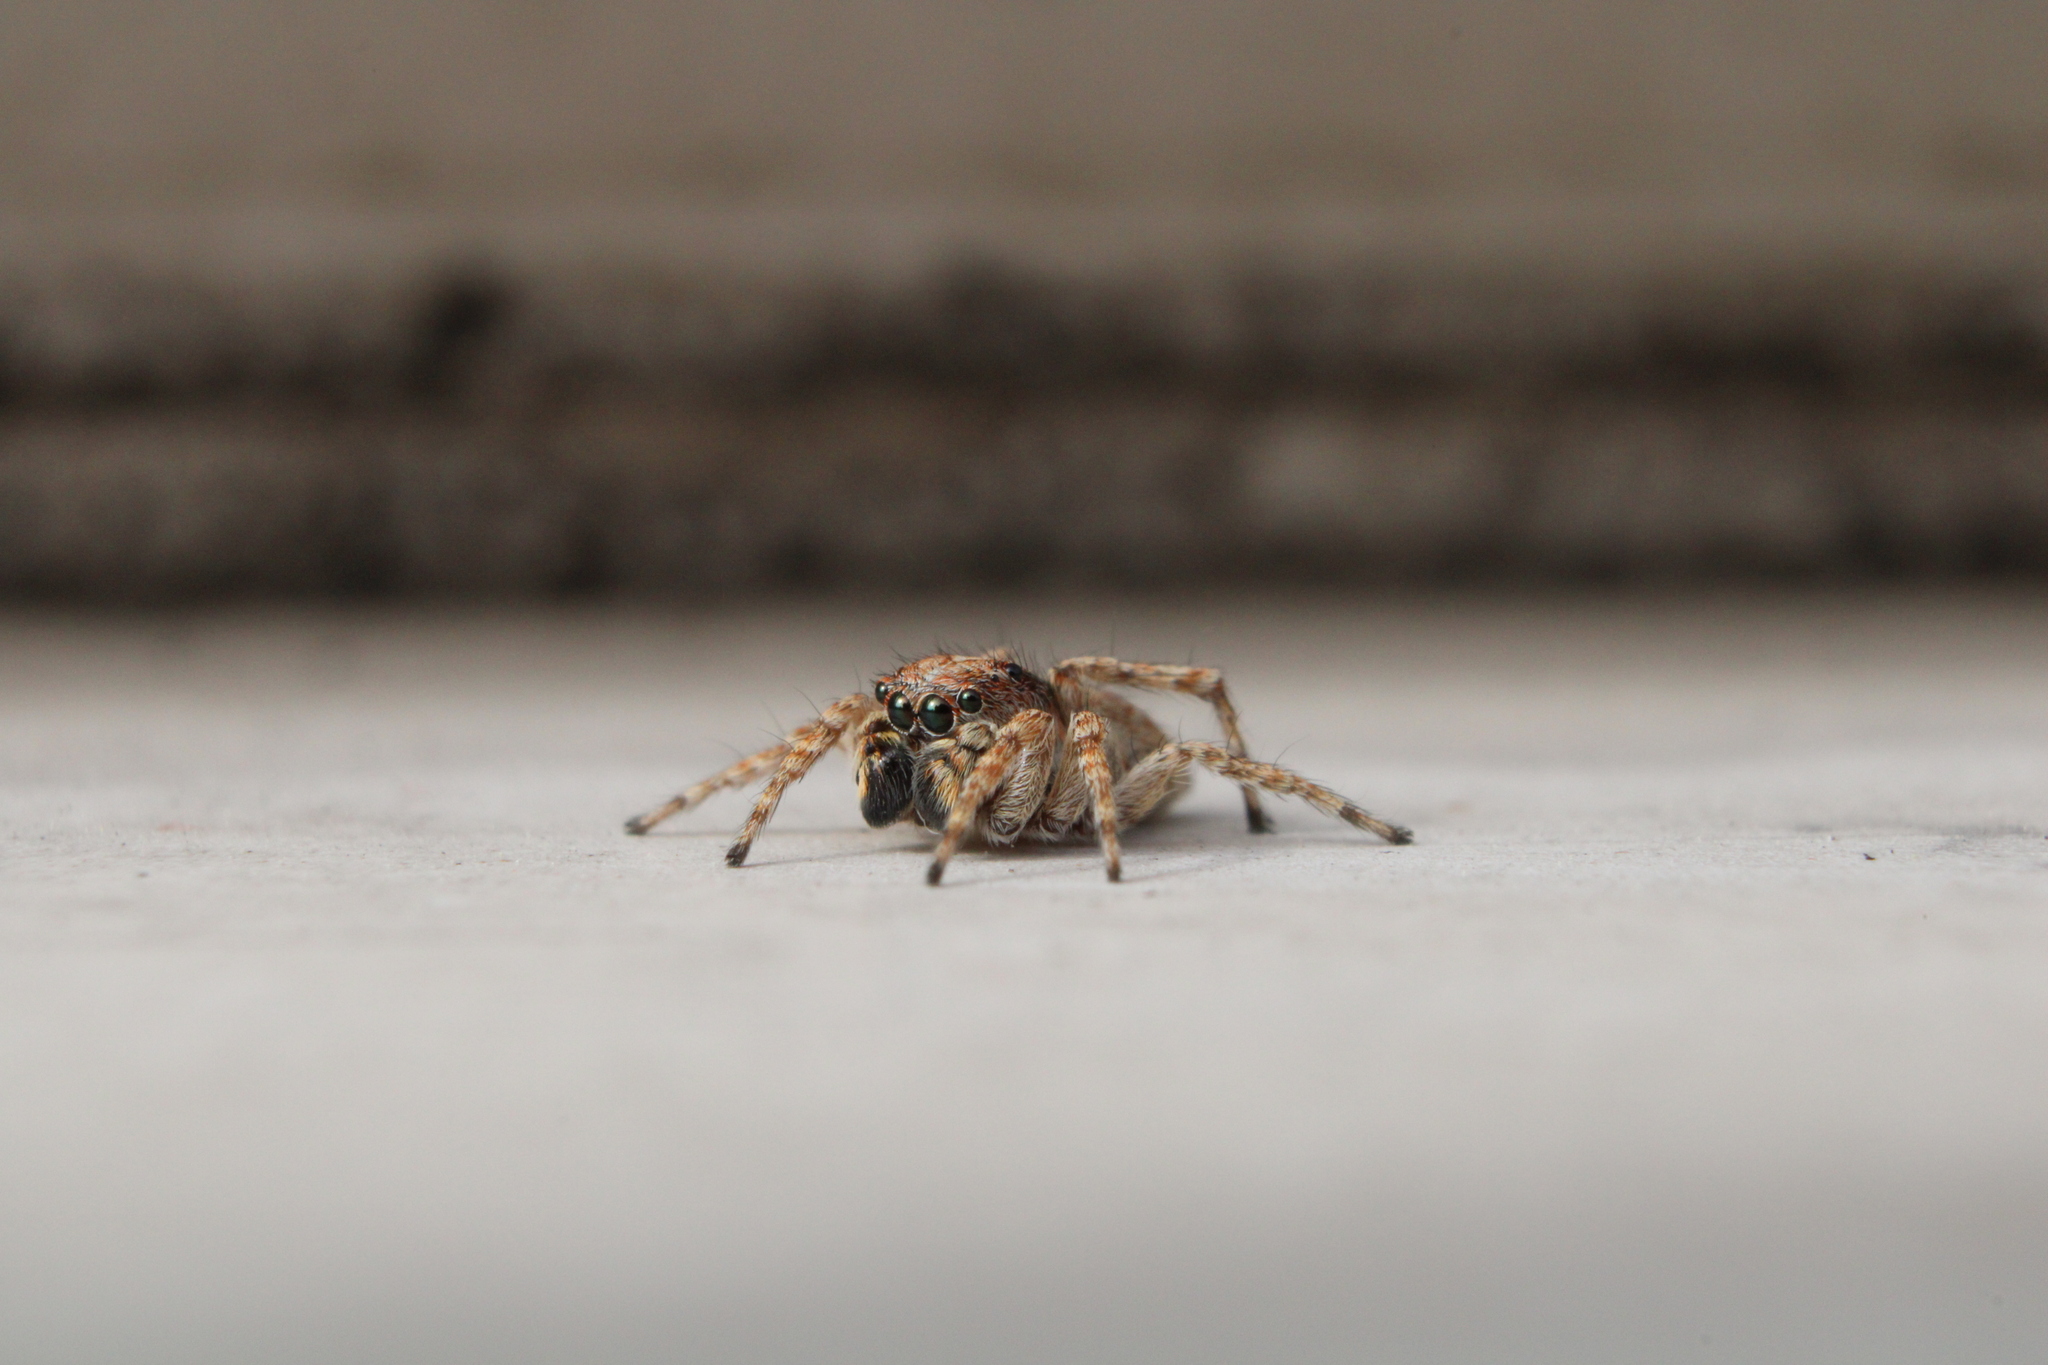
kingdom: Animalia
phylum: Arthropoda
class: Arachnida
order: Araneae
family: Salticidae
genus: Attulus
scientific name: Attulus fasciger
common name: Asiatic wall jumping spider
